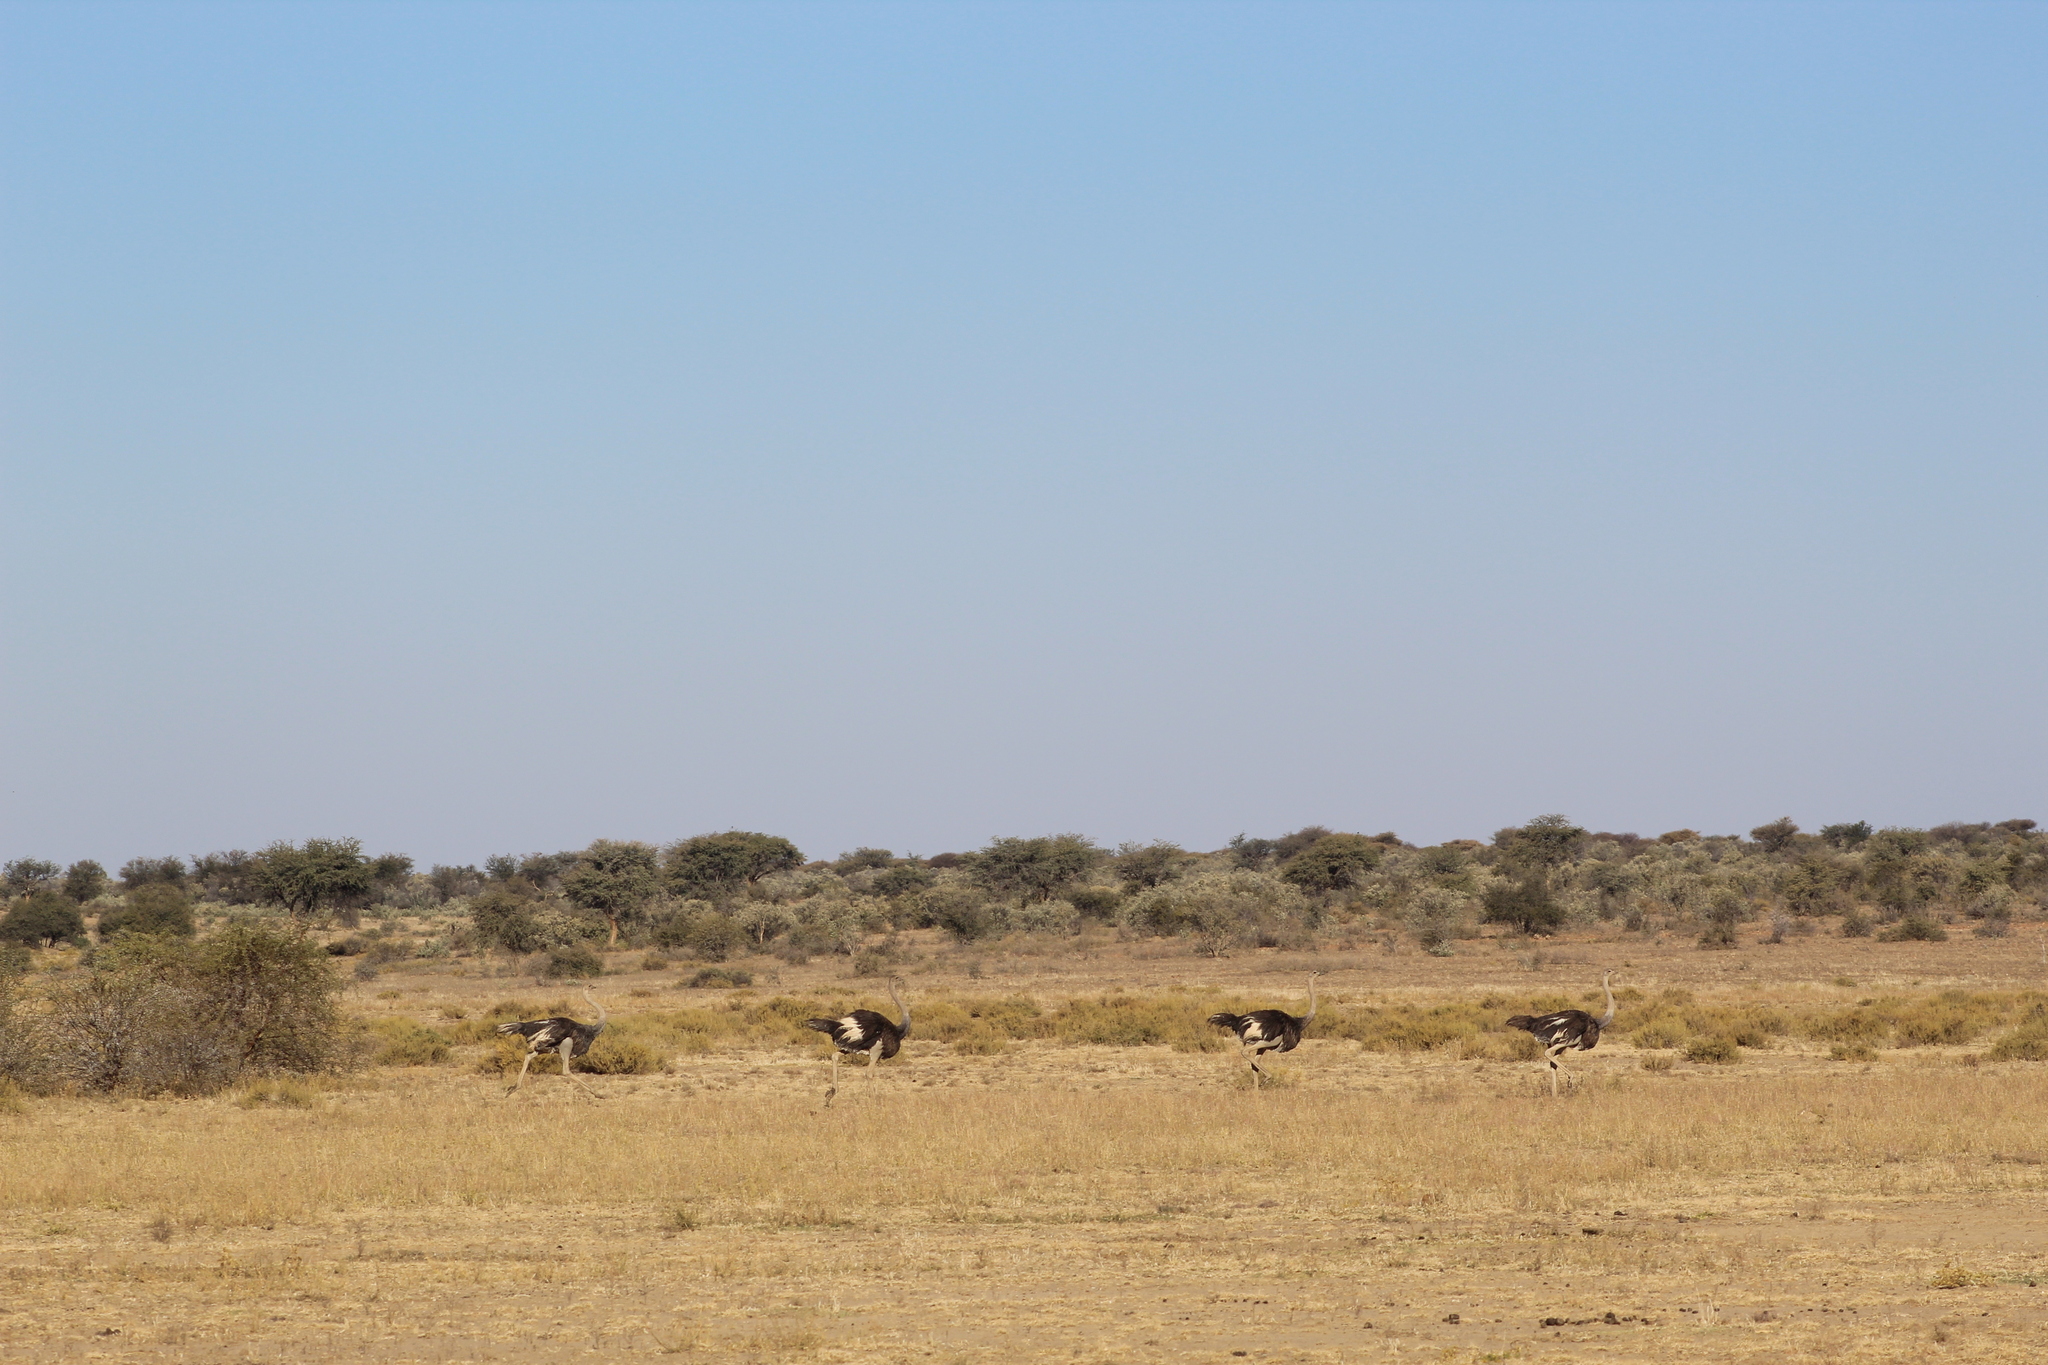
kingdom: Animalia
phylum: Chordata
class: Aves
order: Struthioniformes
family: Struthionidae
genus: Struthio
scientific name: Struthio camelus
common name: Common ostrich
